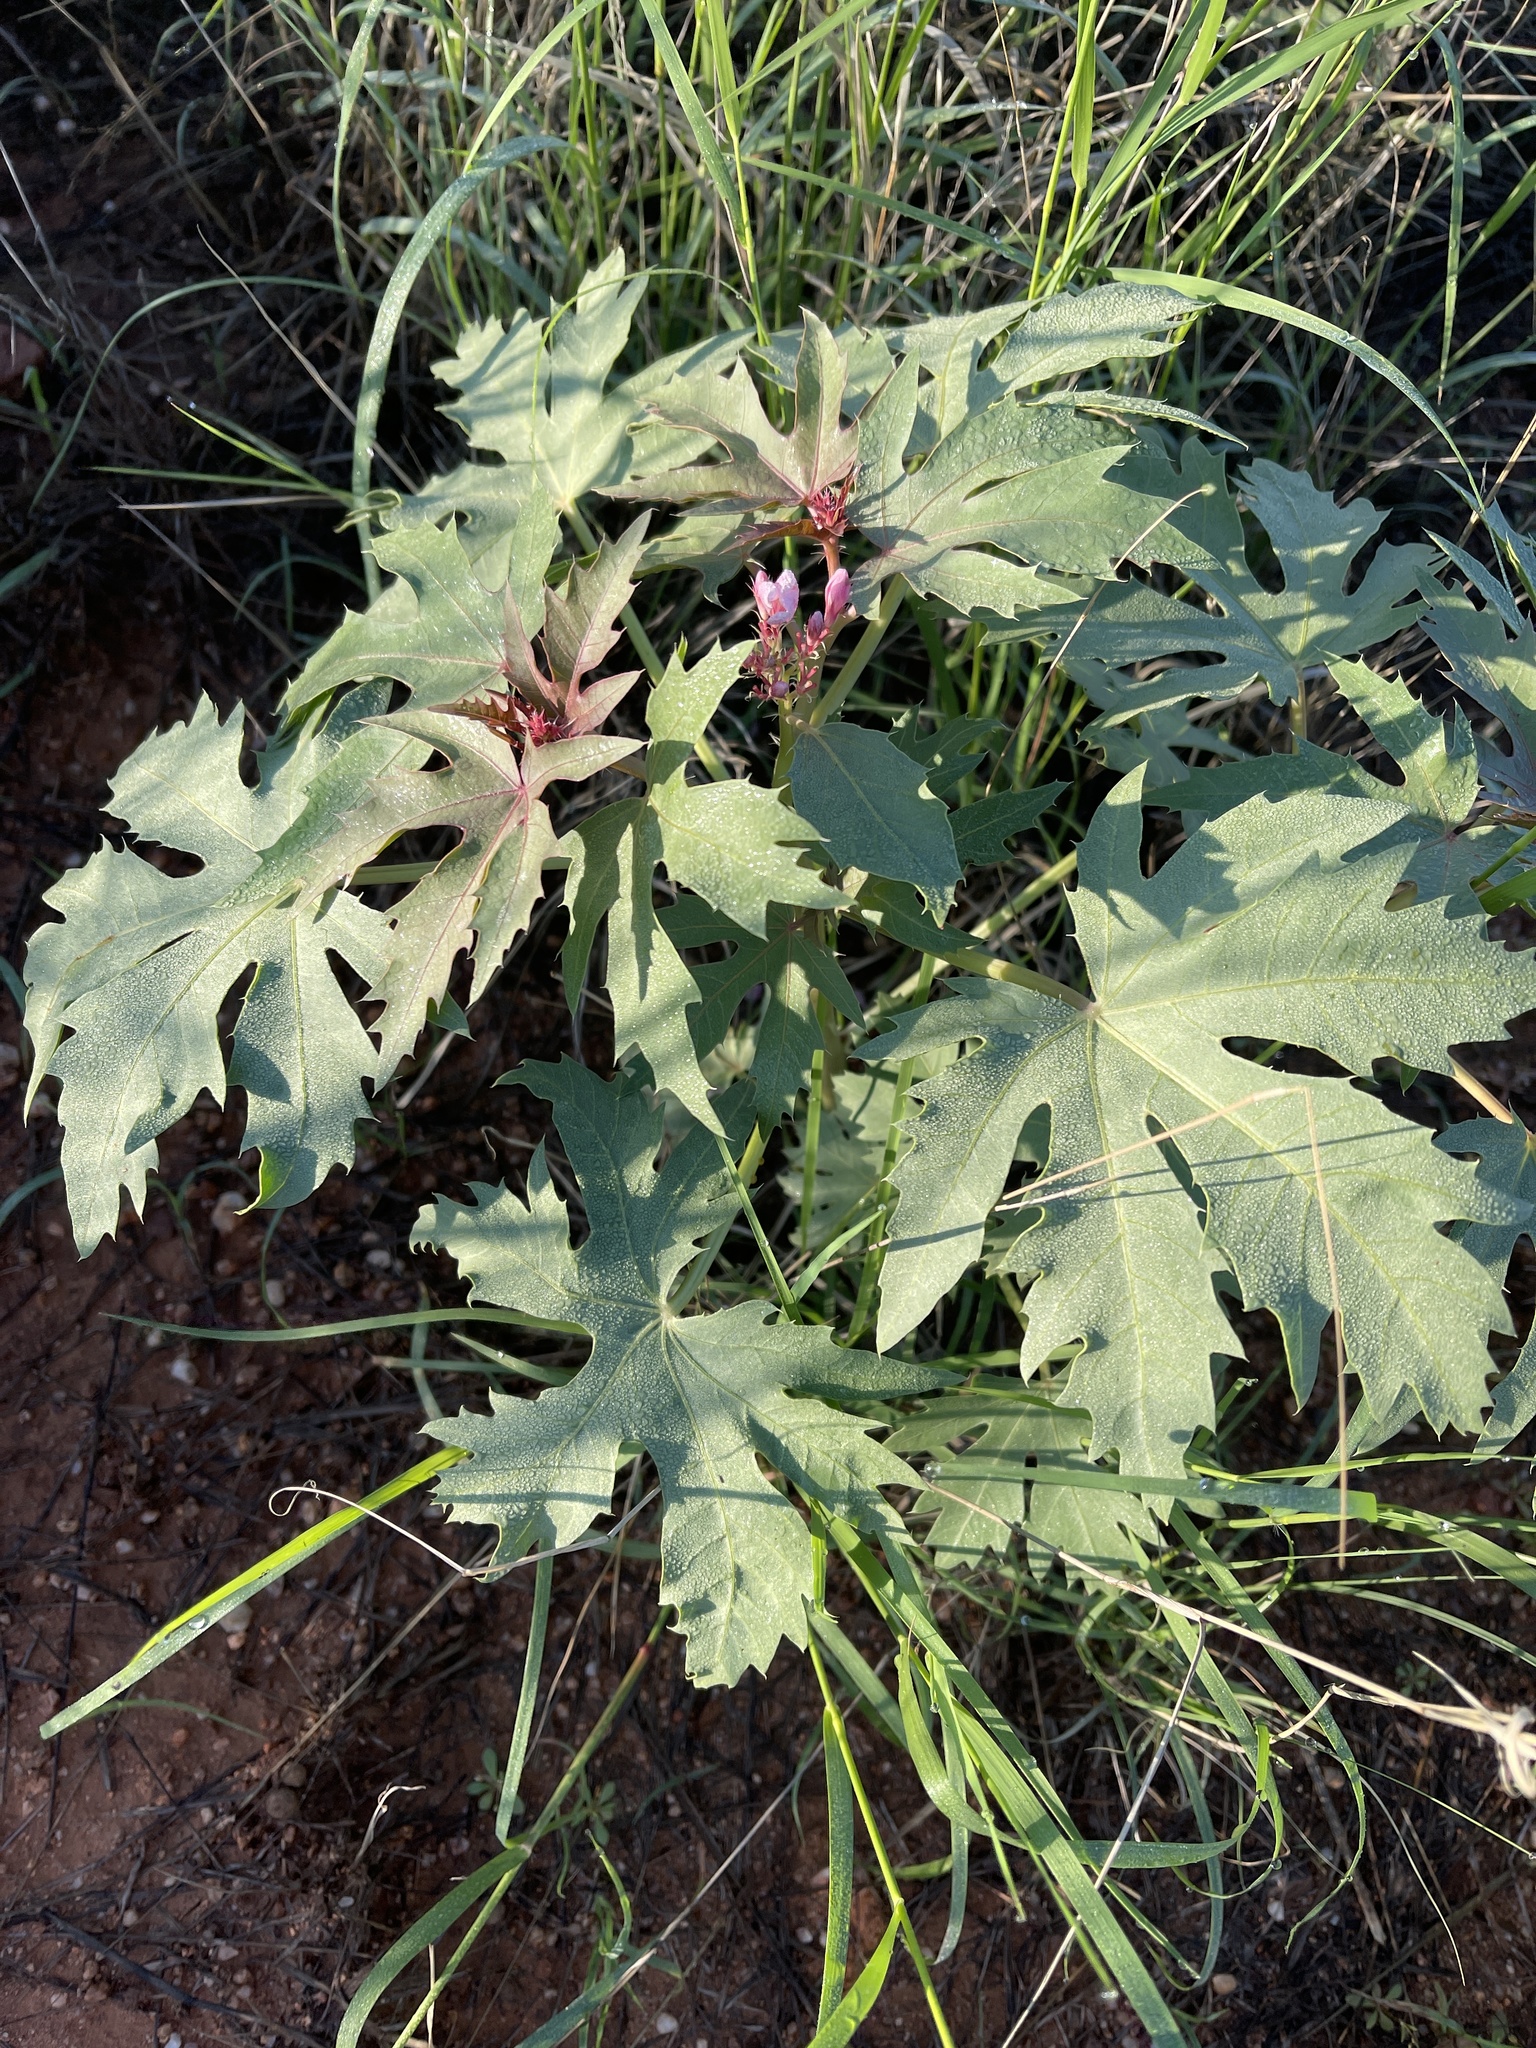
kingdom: Plantae
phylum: Tracheophyta
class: Magnoliopsida
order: Malpighiales
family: Euphorbiaceae
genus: Jatropha
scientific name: Jatropha macrorhiza
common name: Ragged nettlespurge
